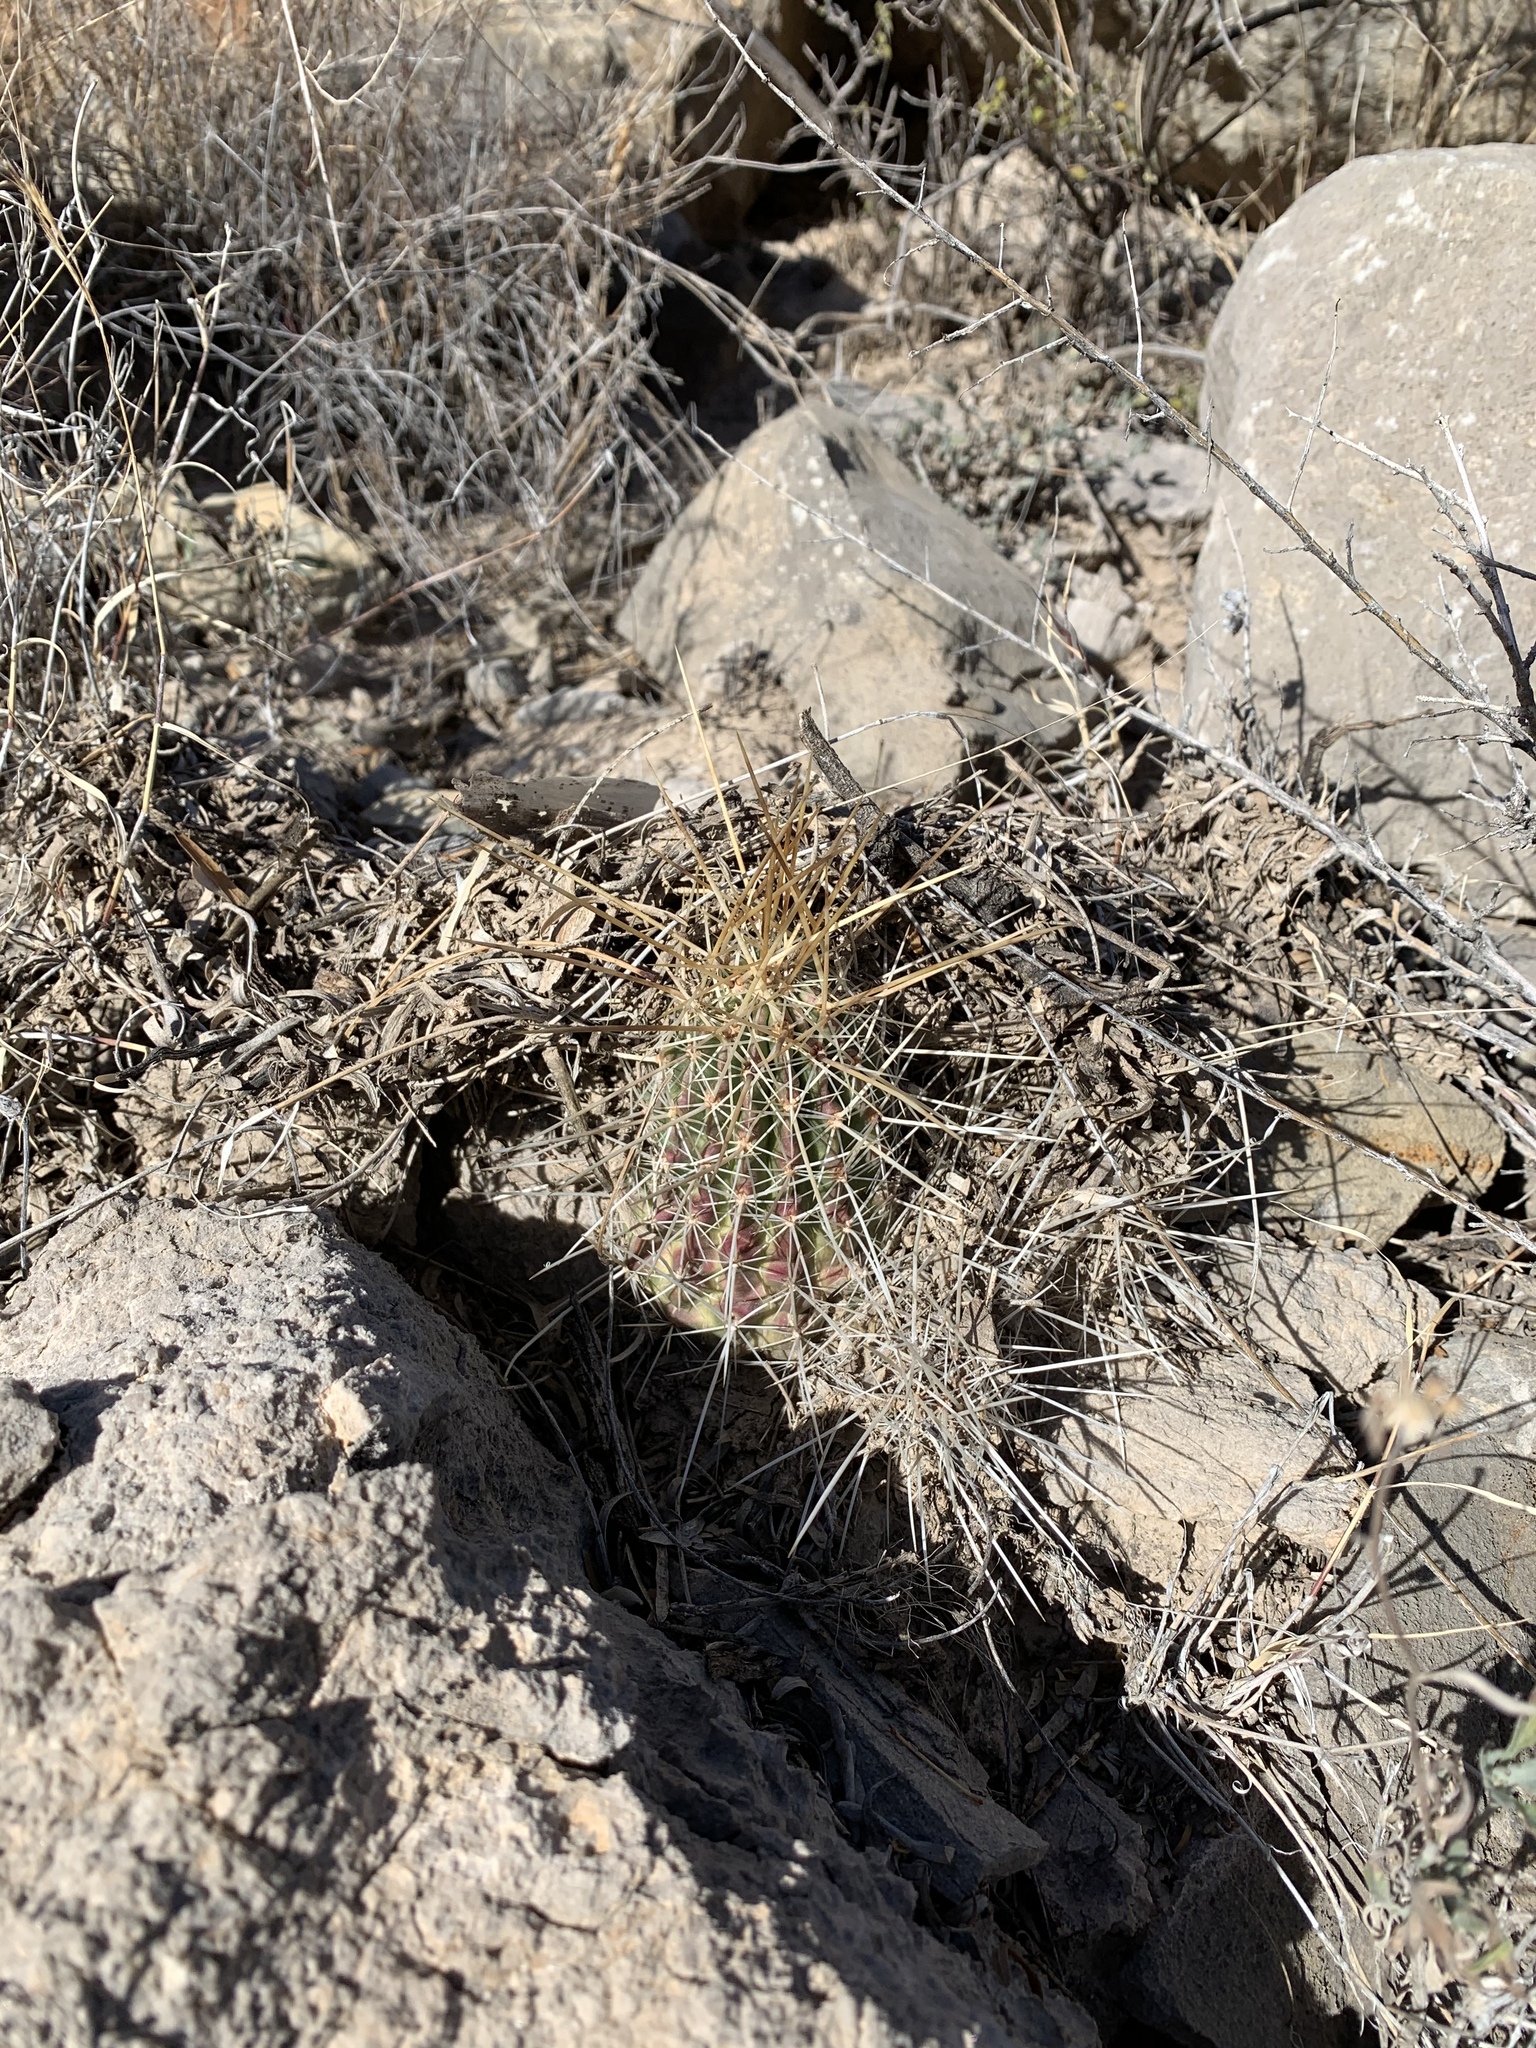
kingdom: Plantae
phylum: Tracheophyta
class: Magnoliopsida
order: Caryophyllales
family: Cactaceae
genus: Echinocereus
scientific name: Echinocereus stramineus
